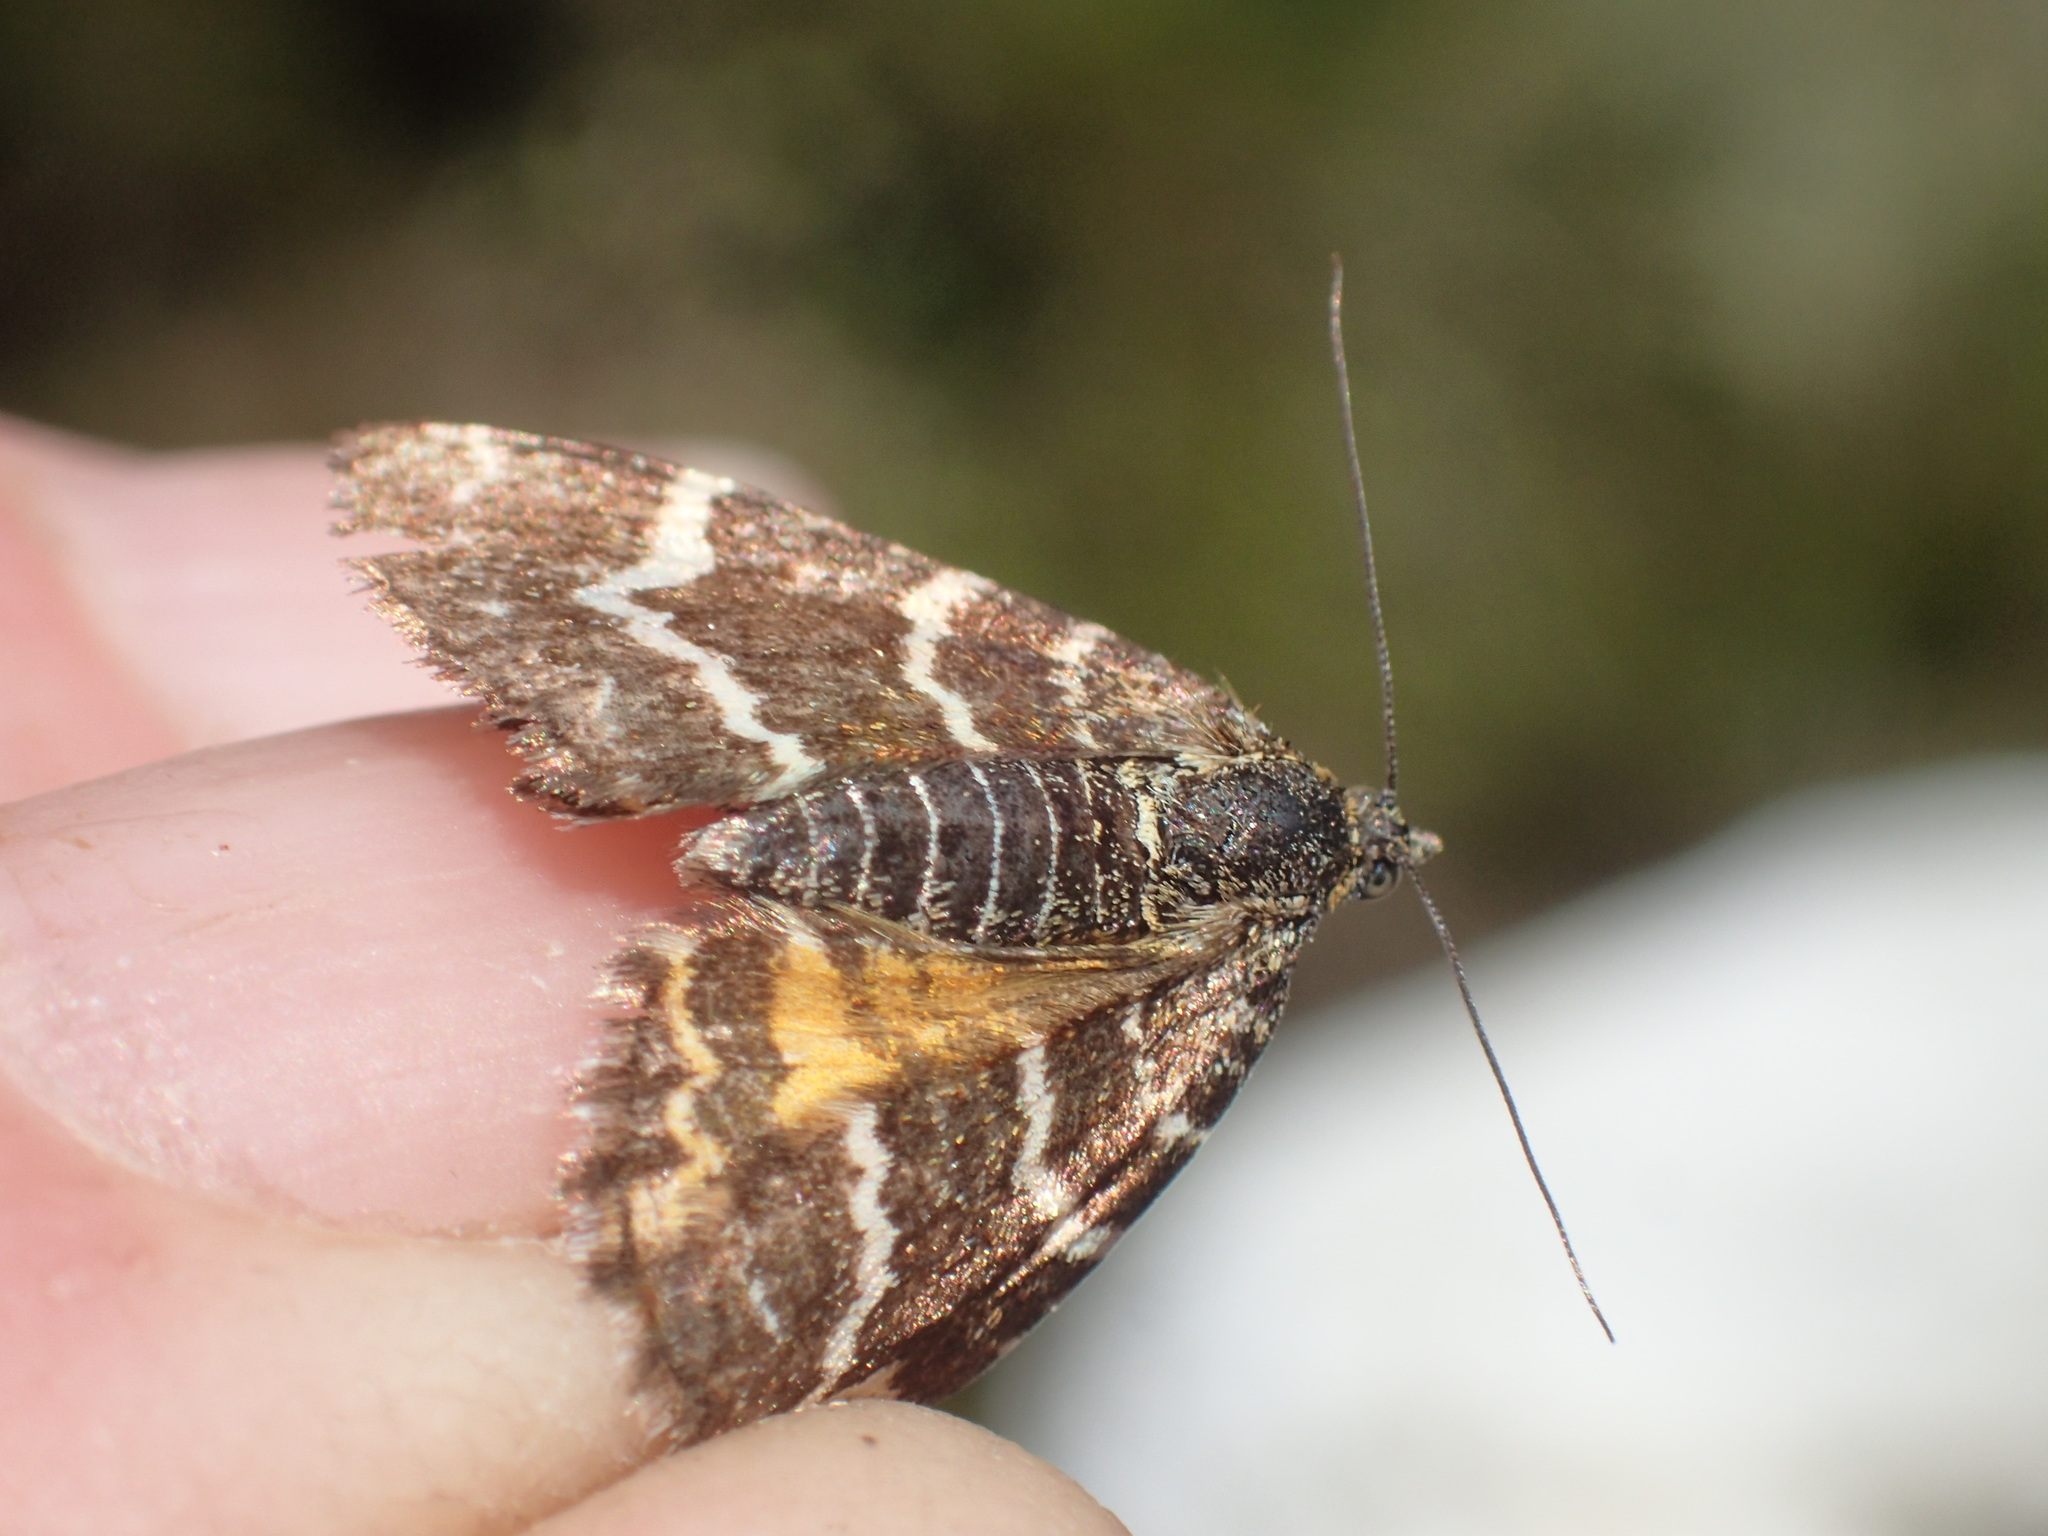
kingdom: Animalia
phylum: Arthropoda
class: Insecta
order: Lepidoptera
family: Geometridae
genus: Chrysolarentia
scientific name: Chrysolarentia polycarpa
